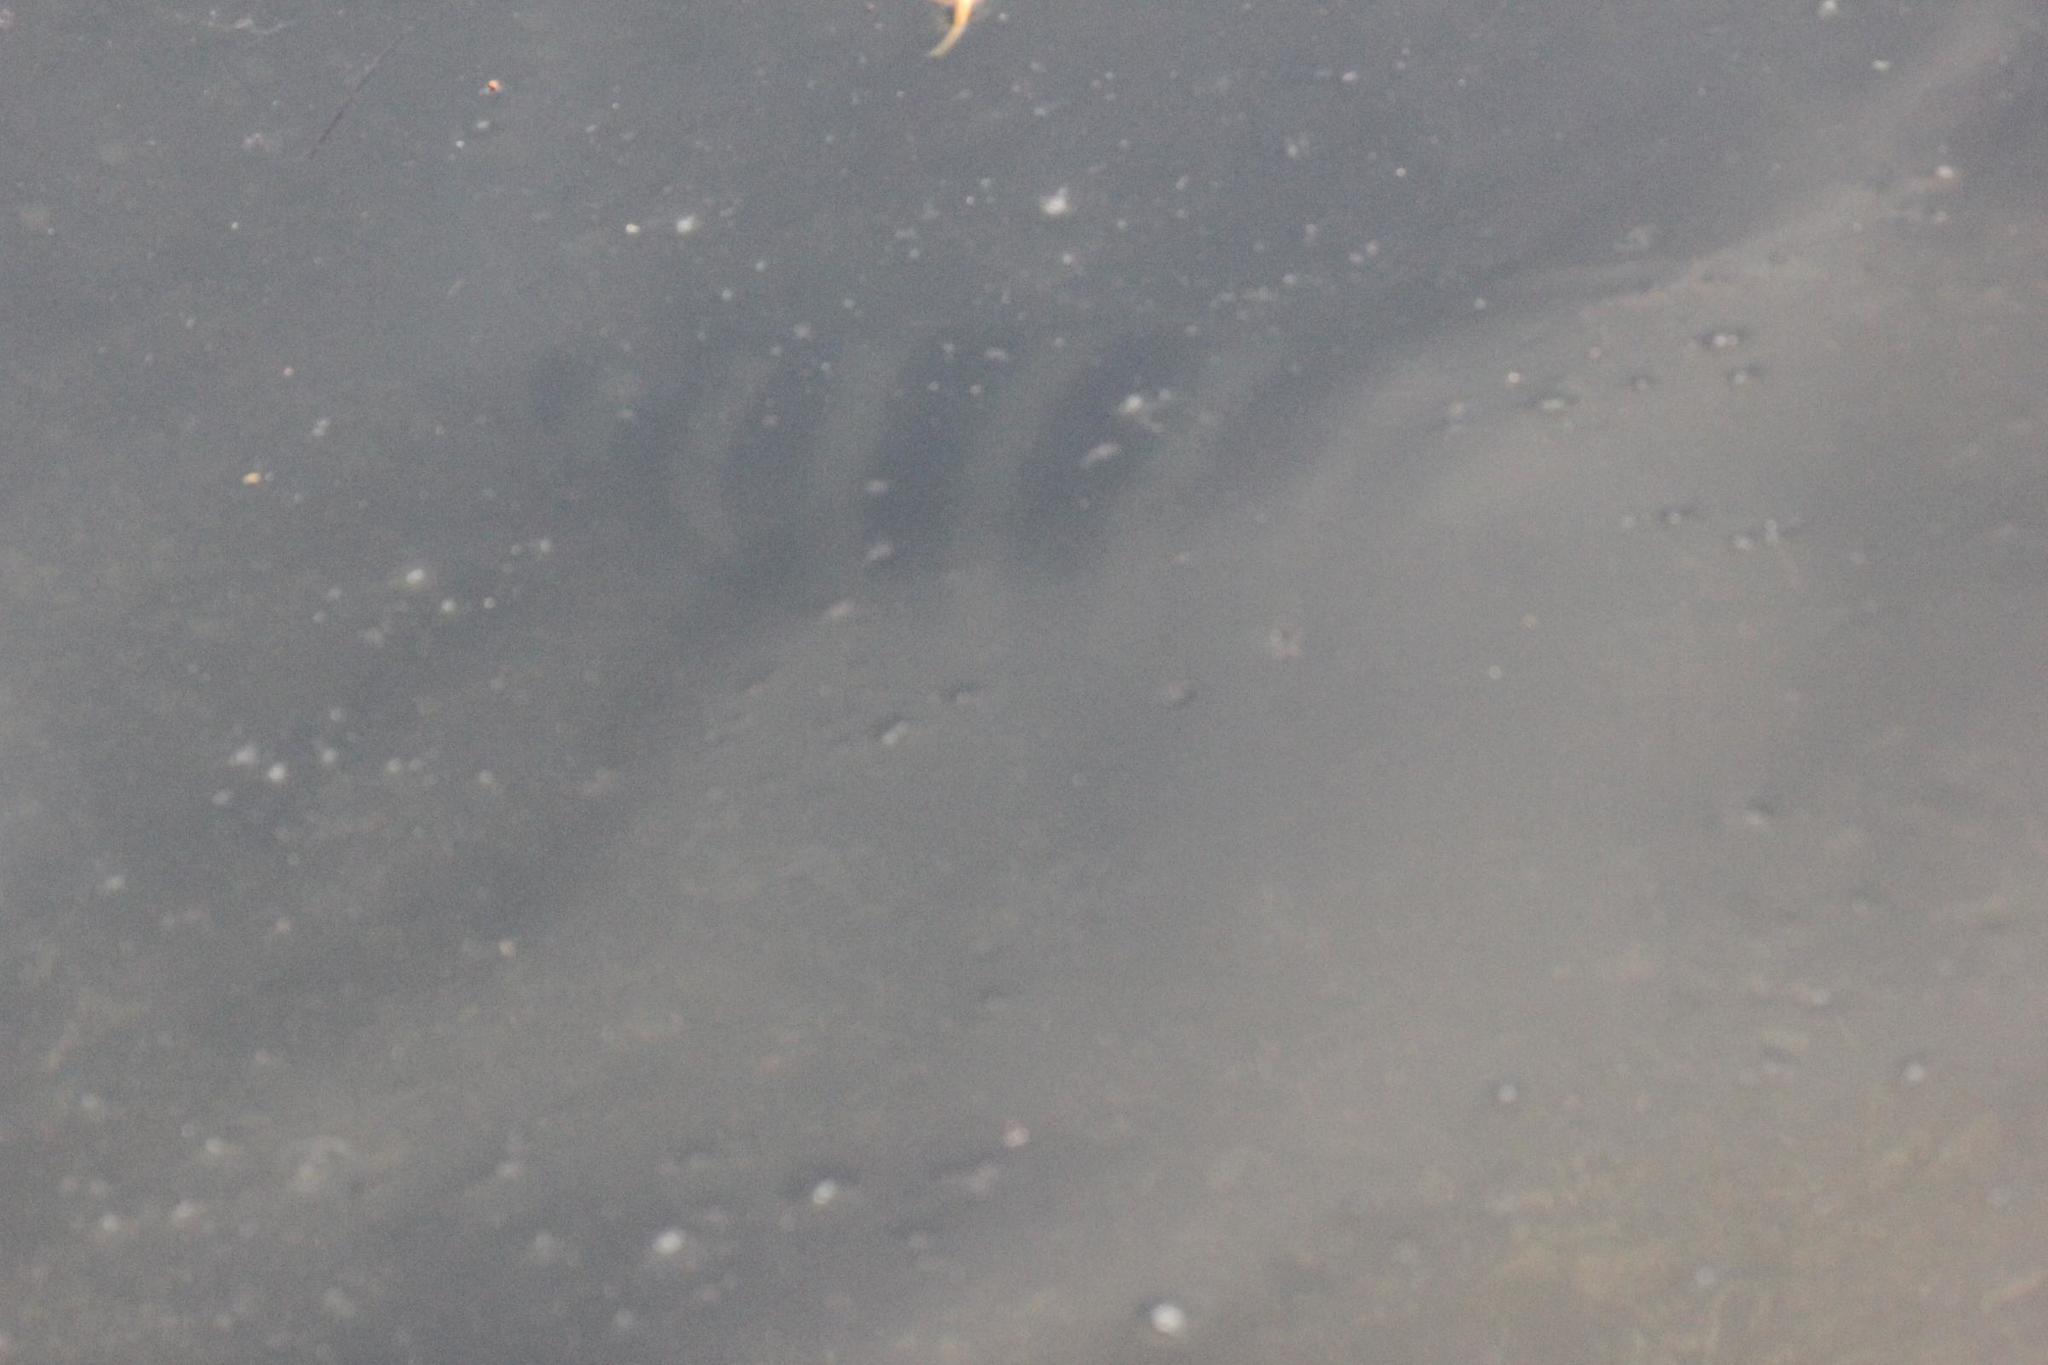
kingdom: Animalia
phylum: Chordata
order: Perciformes
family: Sparidae
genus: Archosargus
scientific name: Archosargus probatocephalus
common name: Sheepshead
